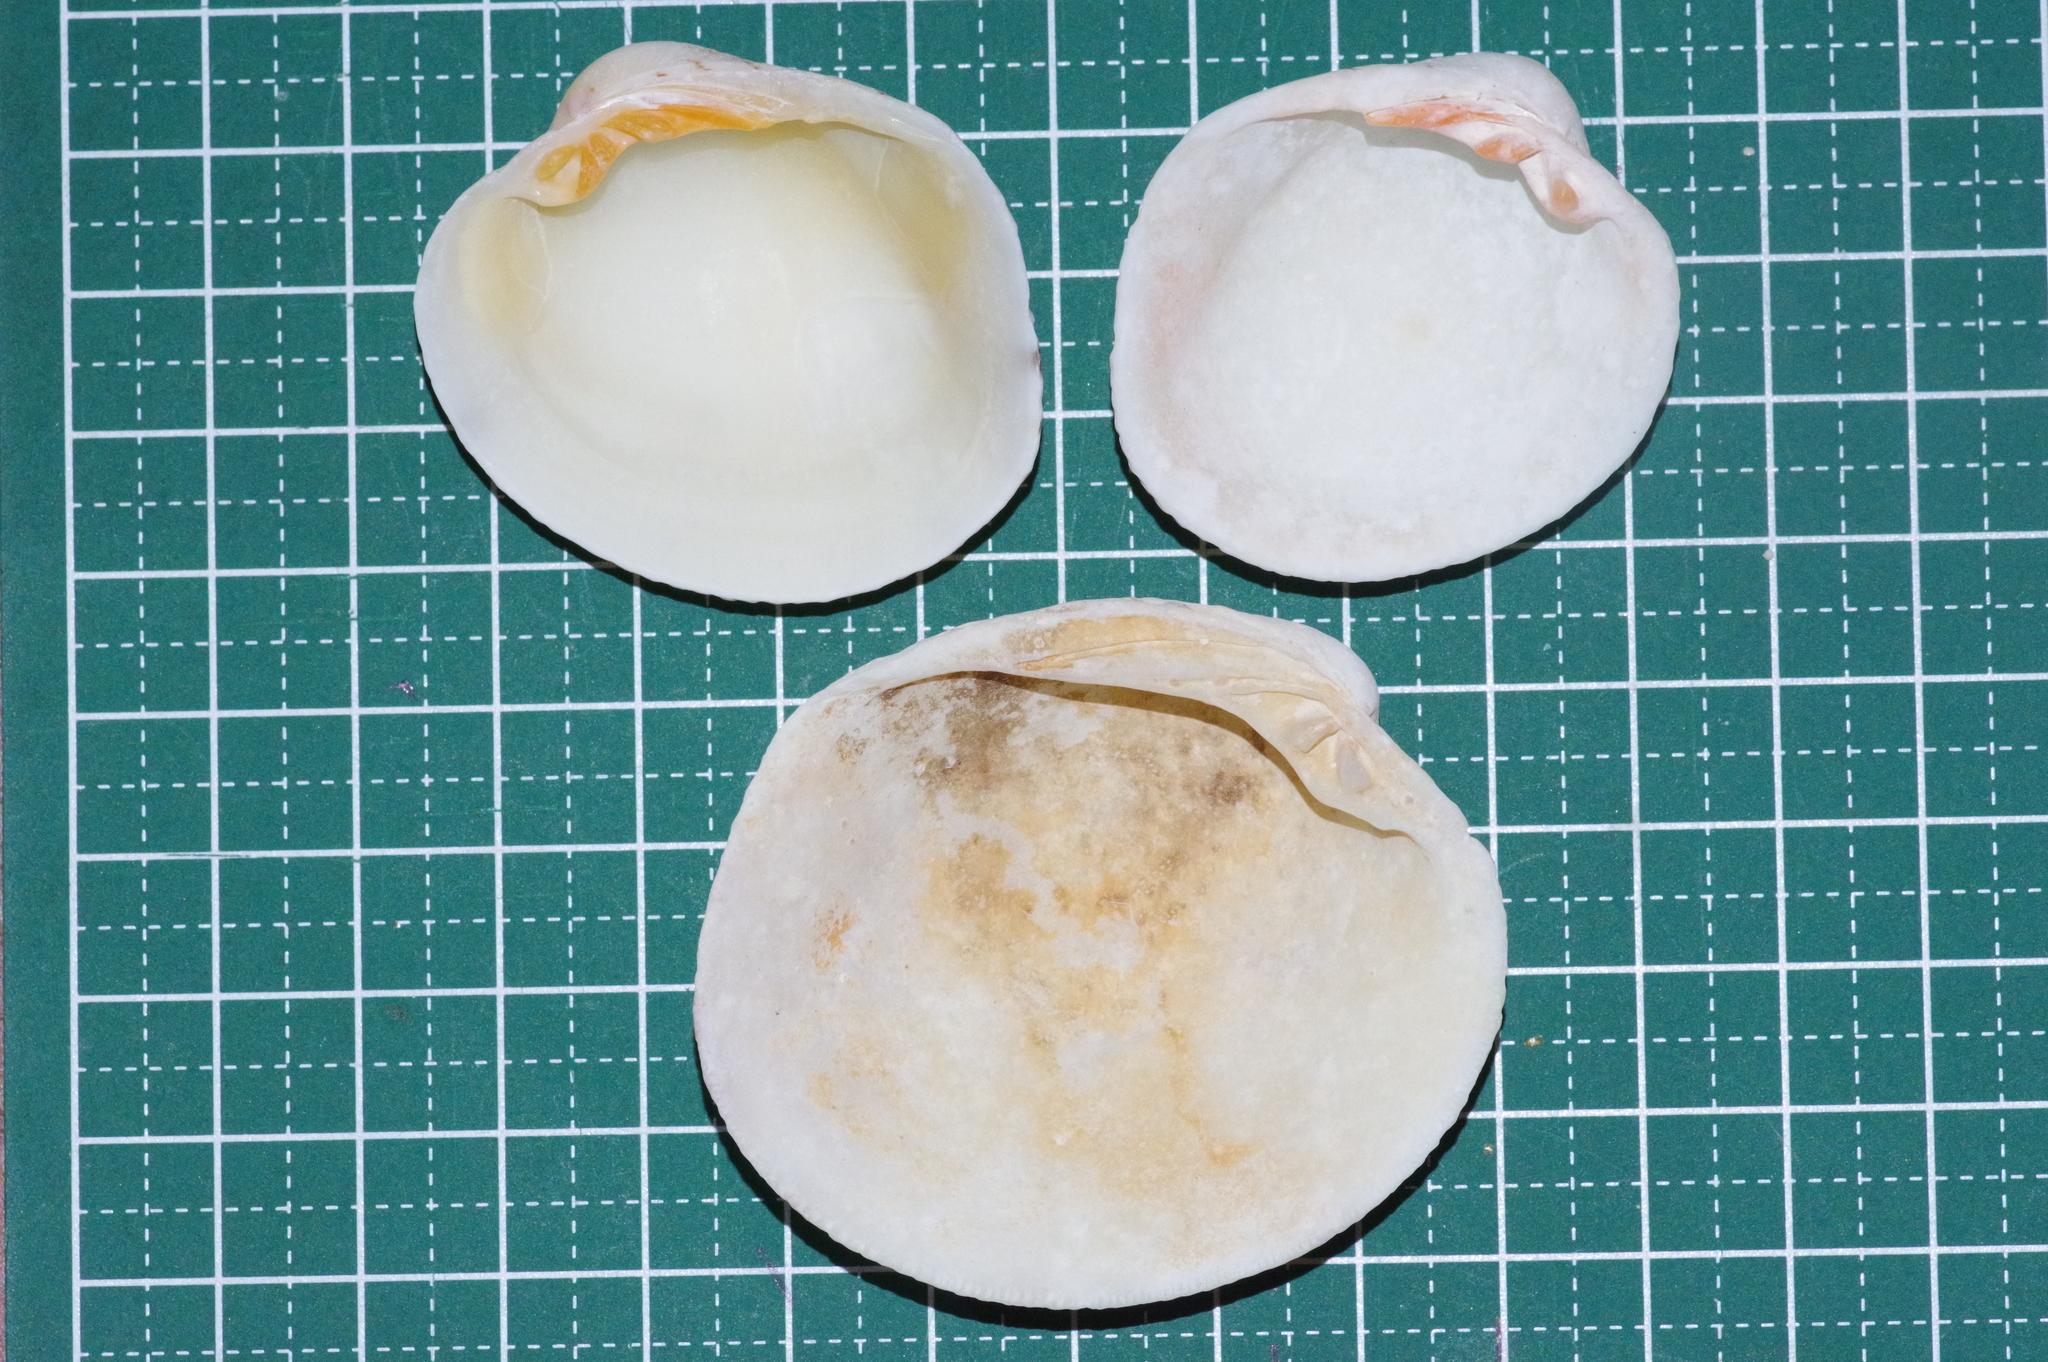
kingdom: Animalia
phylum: Mollusca
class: Bivalvia
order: Venerida
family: Veneridae
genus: Antigona
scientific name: Antigona chemnitzii
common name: Chemnitz's venus
